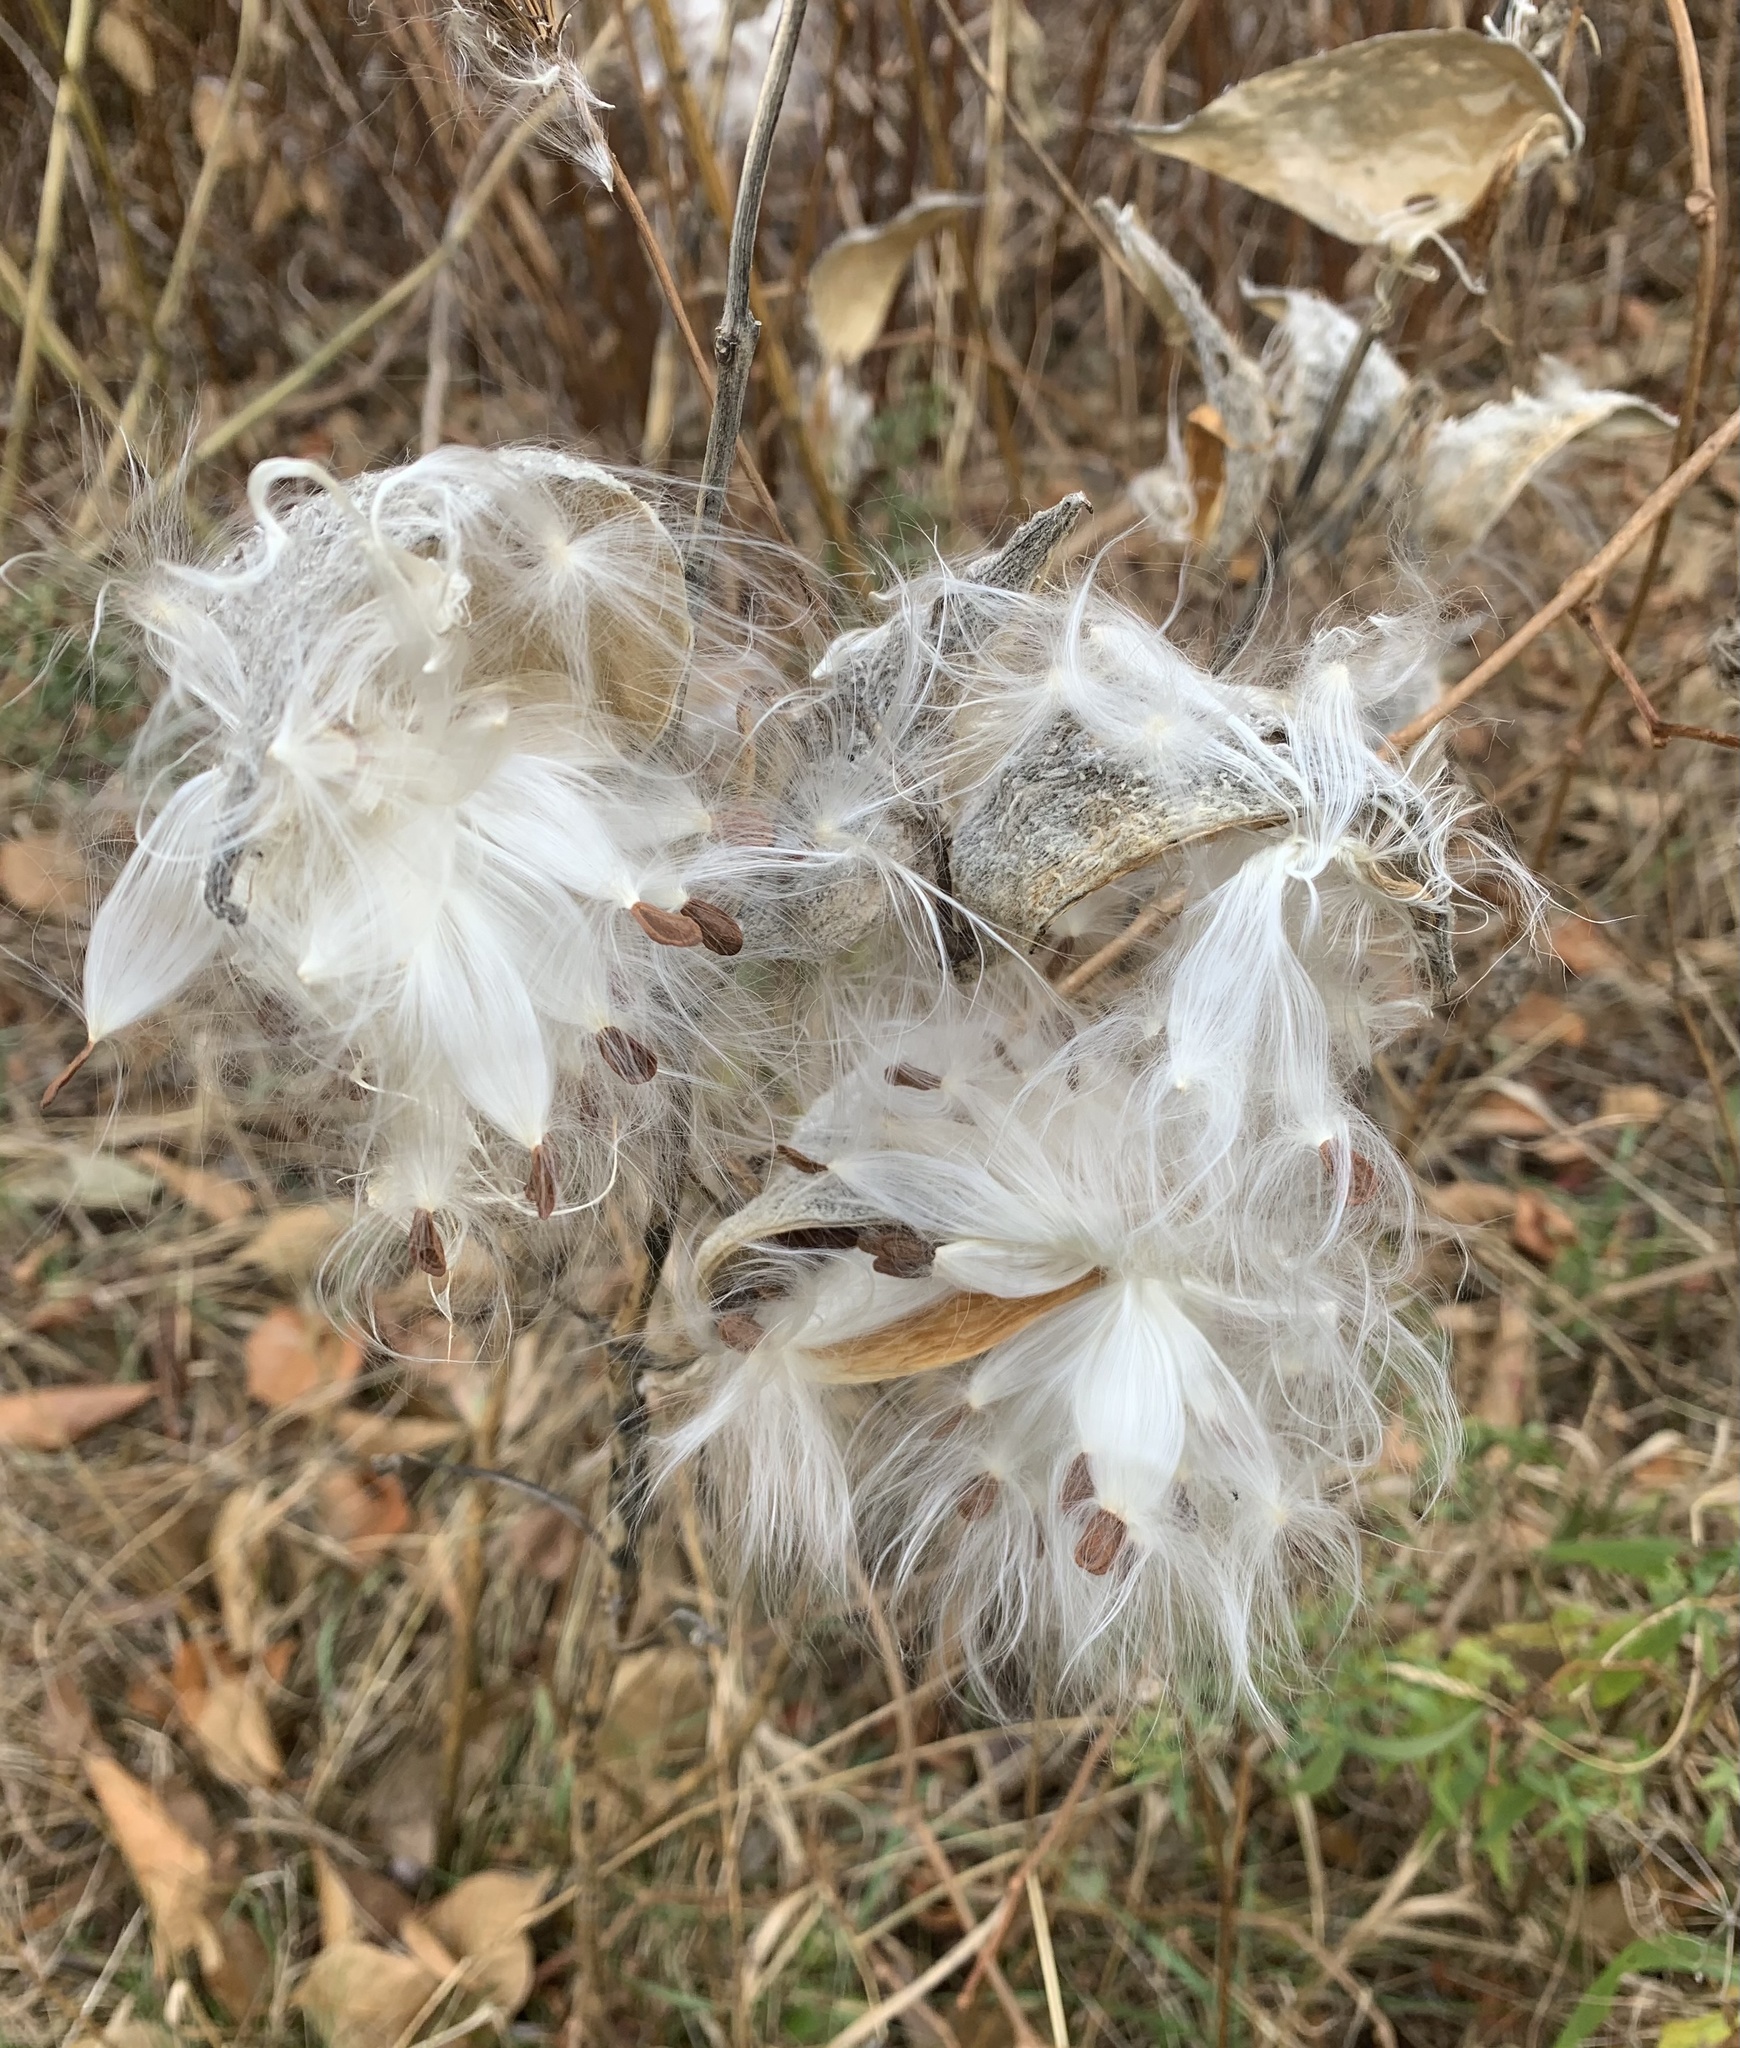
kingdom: Plantae
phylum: Tracheophyta
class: Magnoliopsida
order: Gentianales
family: Apocynaceae
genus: Asclepias
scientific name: Asclepias syriaca
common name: Common milkweed
